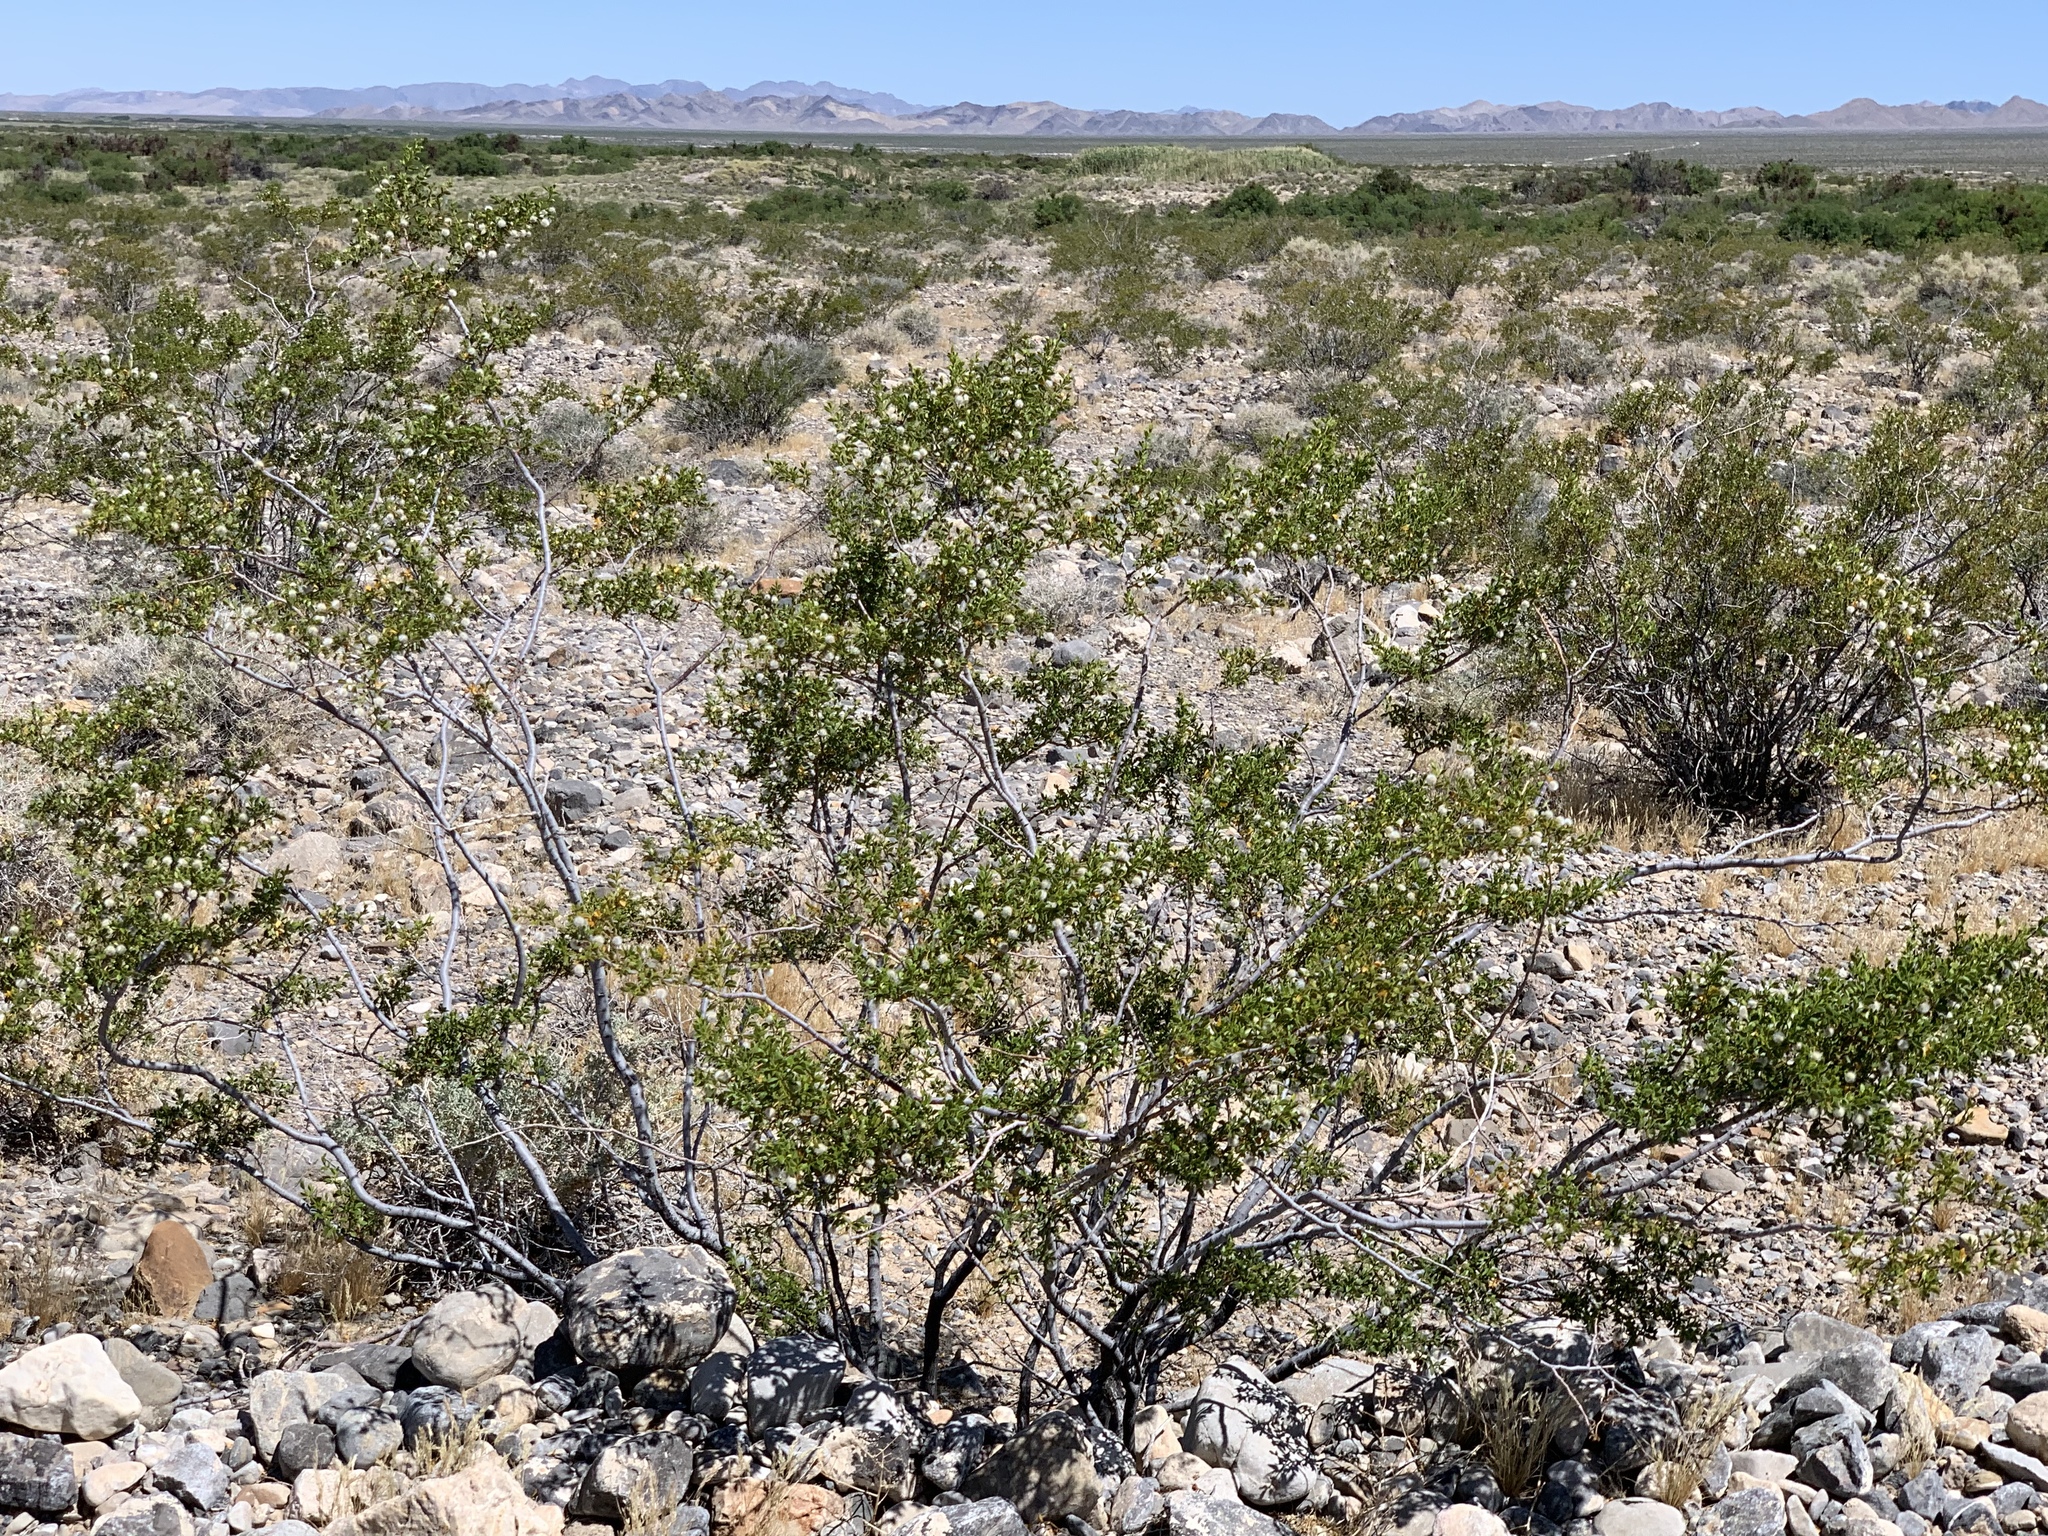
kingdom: Plantae
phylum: Tracheophyta
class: Magnoliopsida
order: Zygophyllales
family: Zygophyllaceae
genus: Larrea
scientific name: Larrea tridentata
